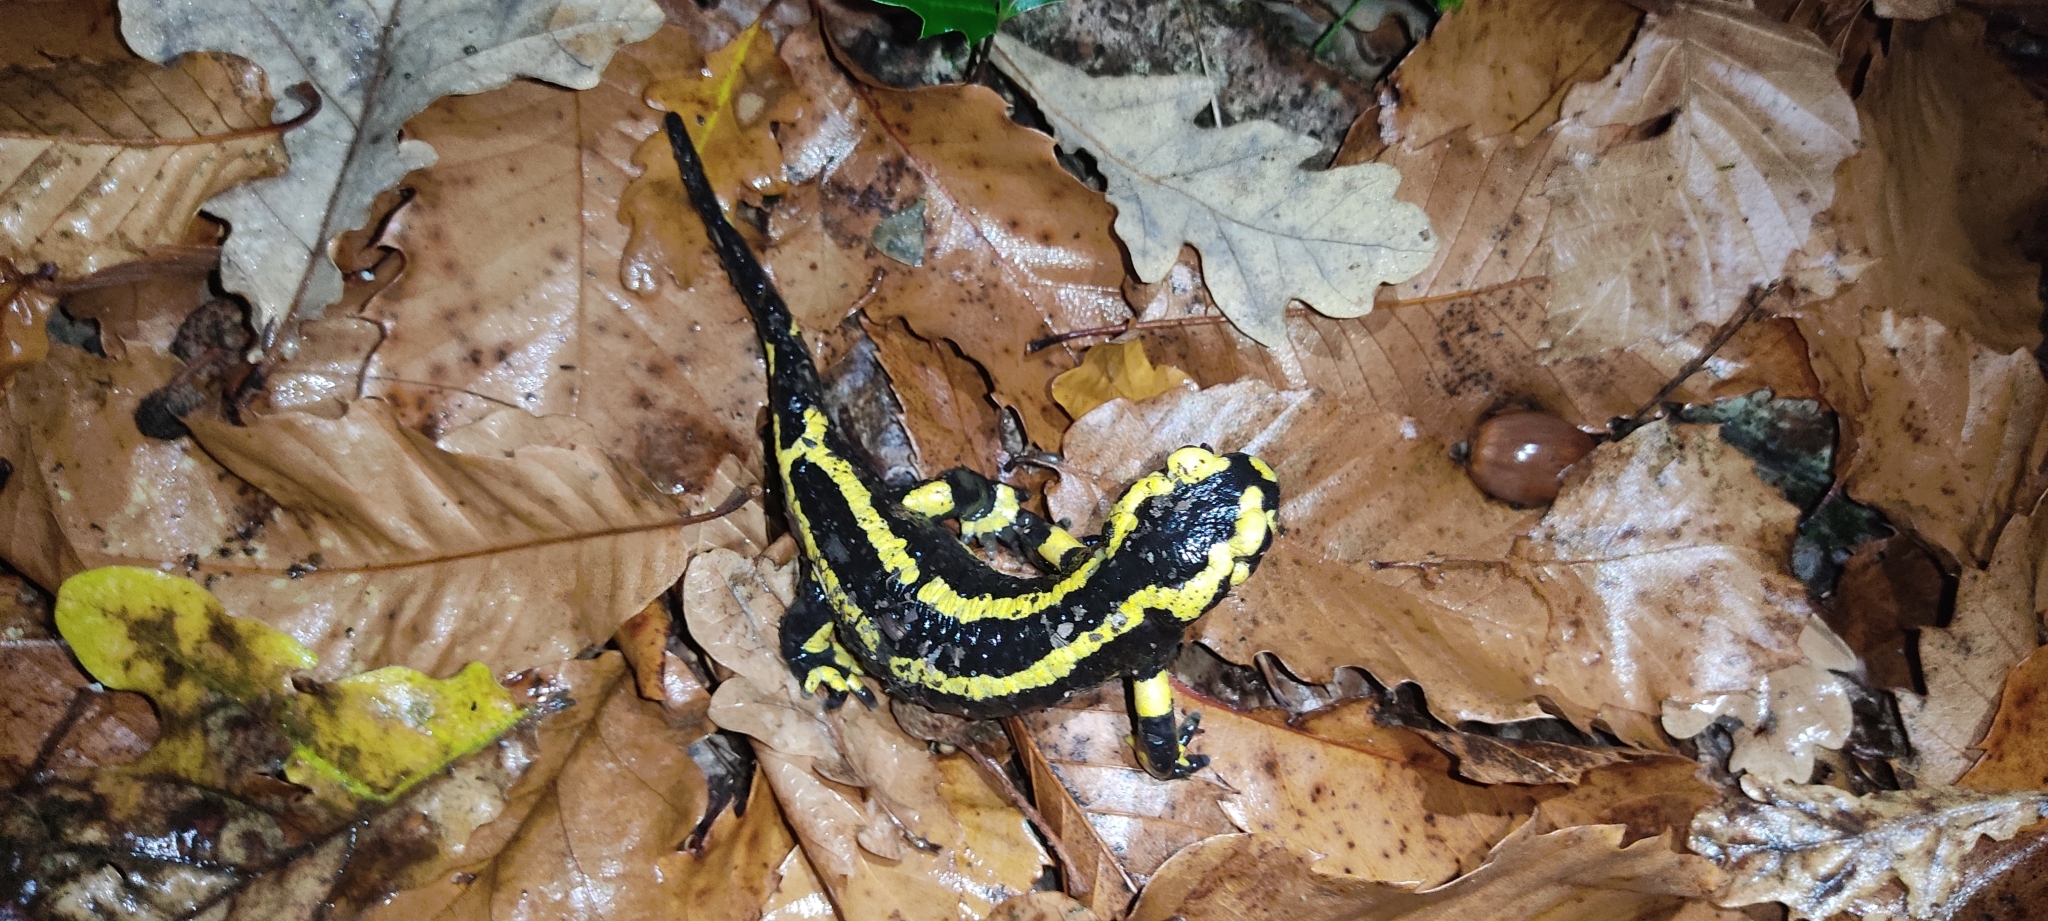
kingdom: Animalia
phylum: Chordata
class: Amphibia
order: Caudata
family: Salamandridae
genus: Salamandra
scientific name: Salamandra salamandra
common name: Fire salamander
